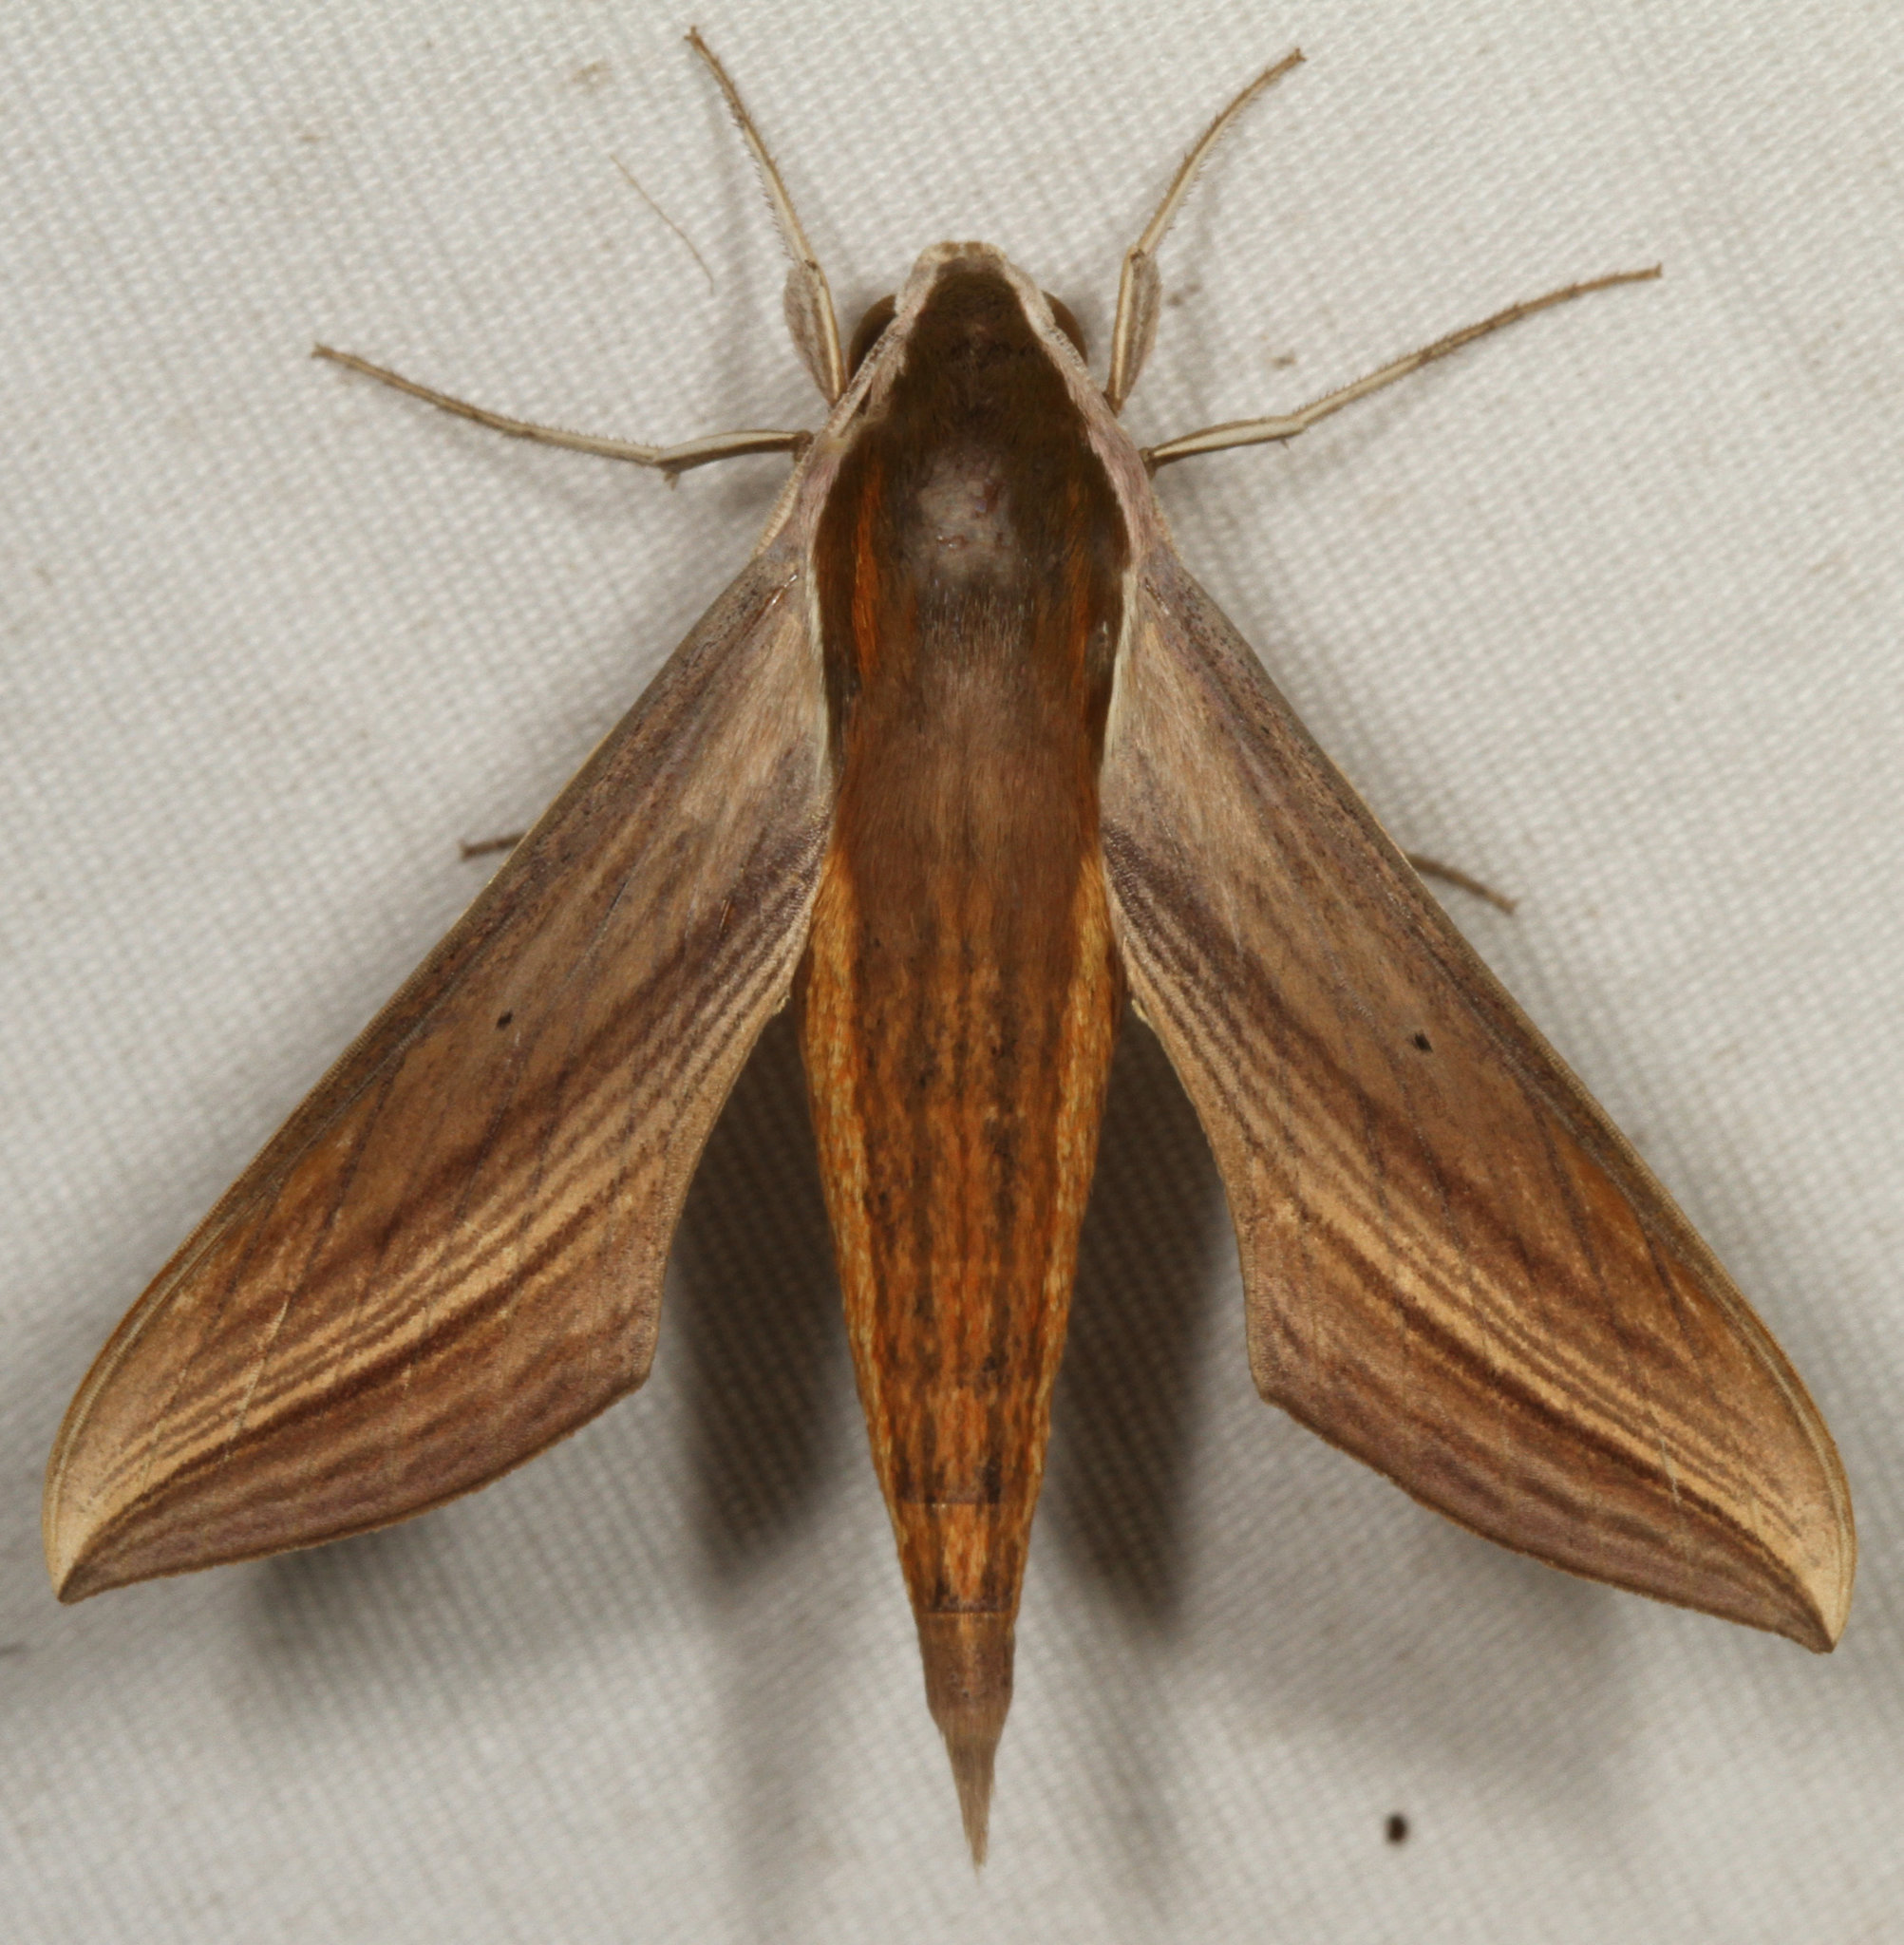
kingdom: Animalia
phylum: Arthropoda
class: Insecta
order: Lepidoptera
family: Sphingidae
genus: Xylophanes
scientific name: Xylophanes tersa
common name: Tersa sphinx
